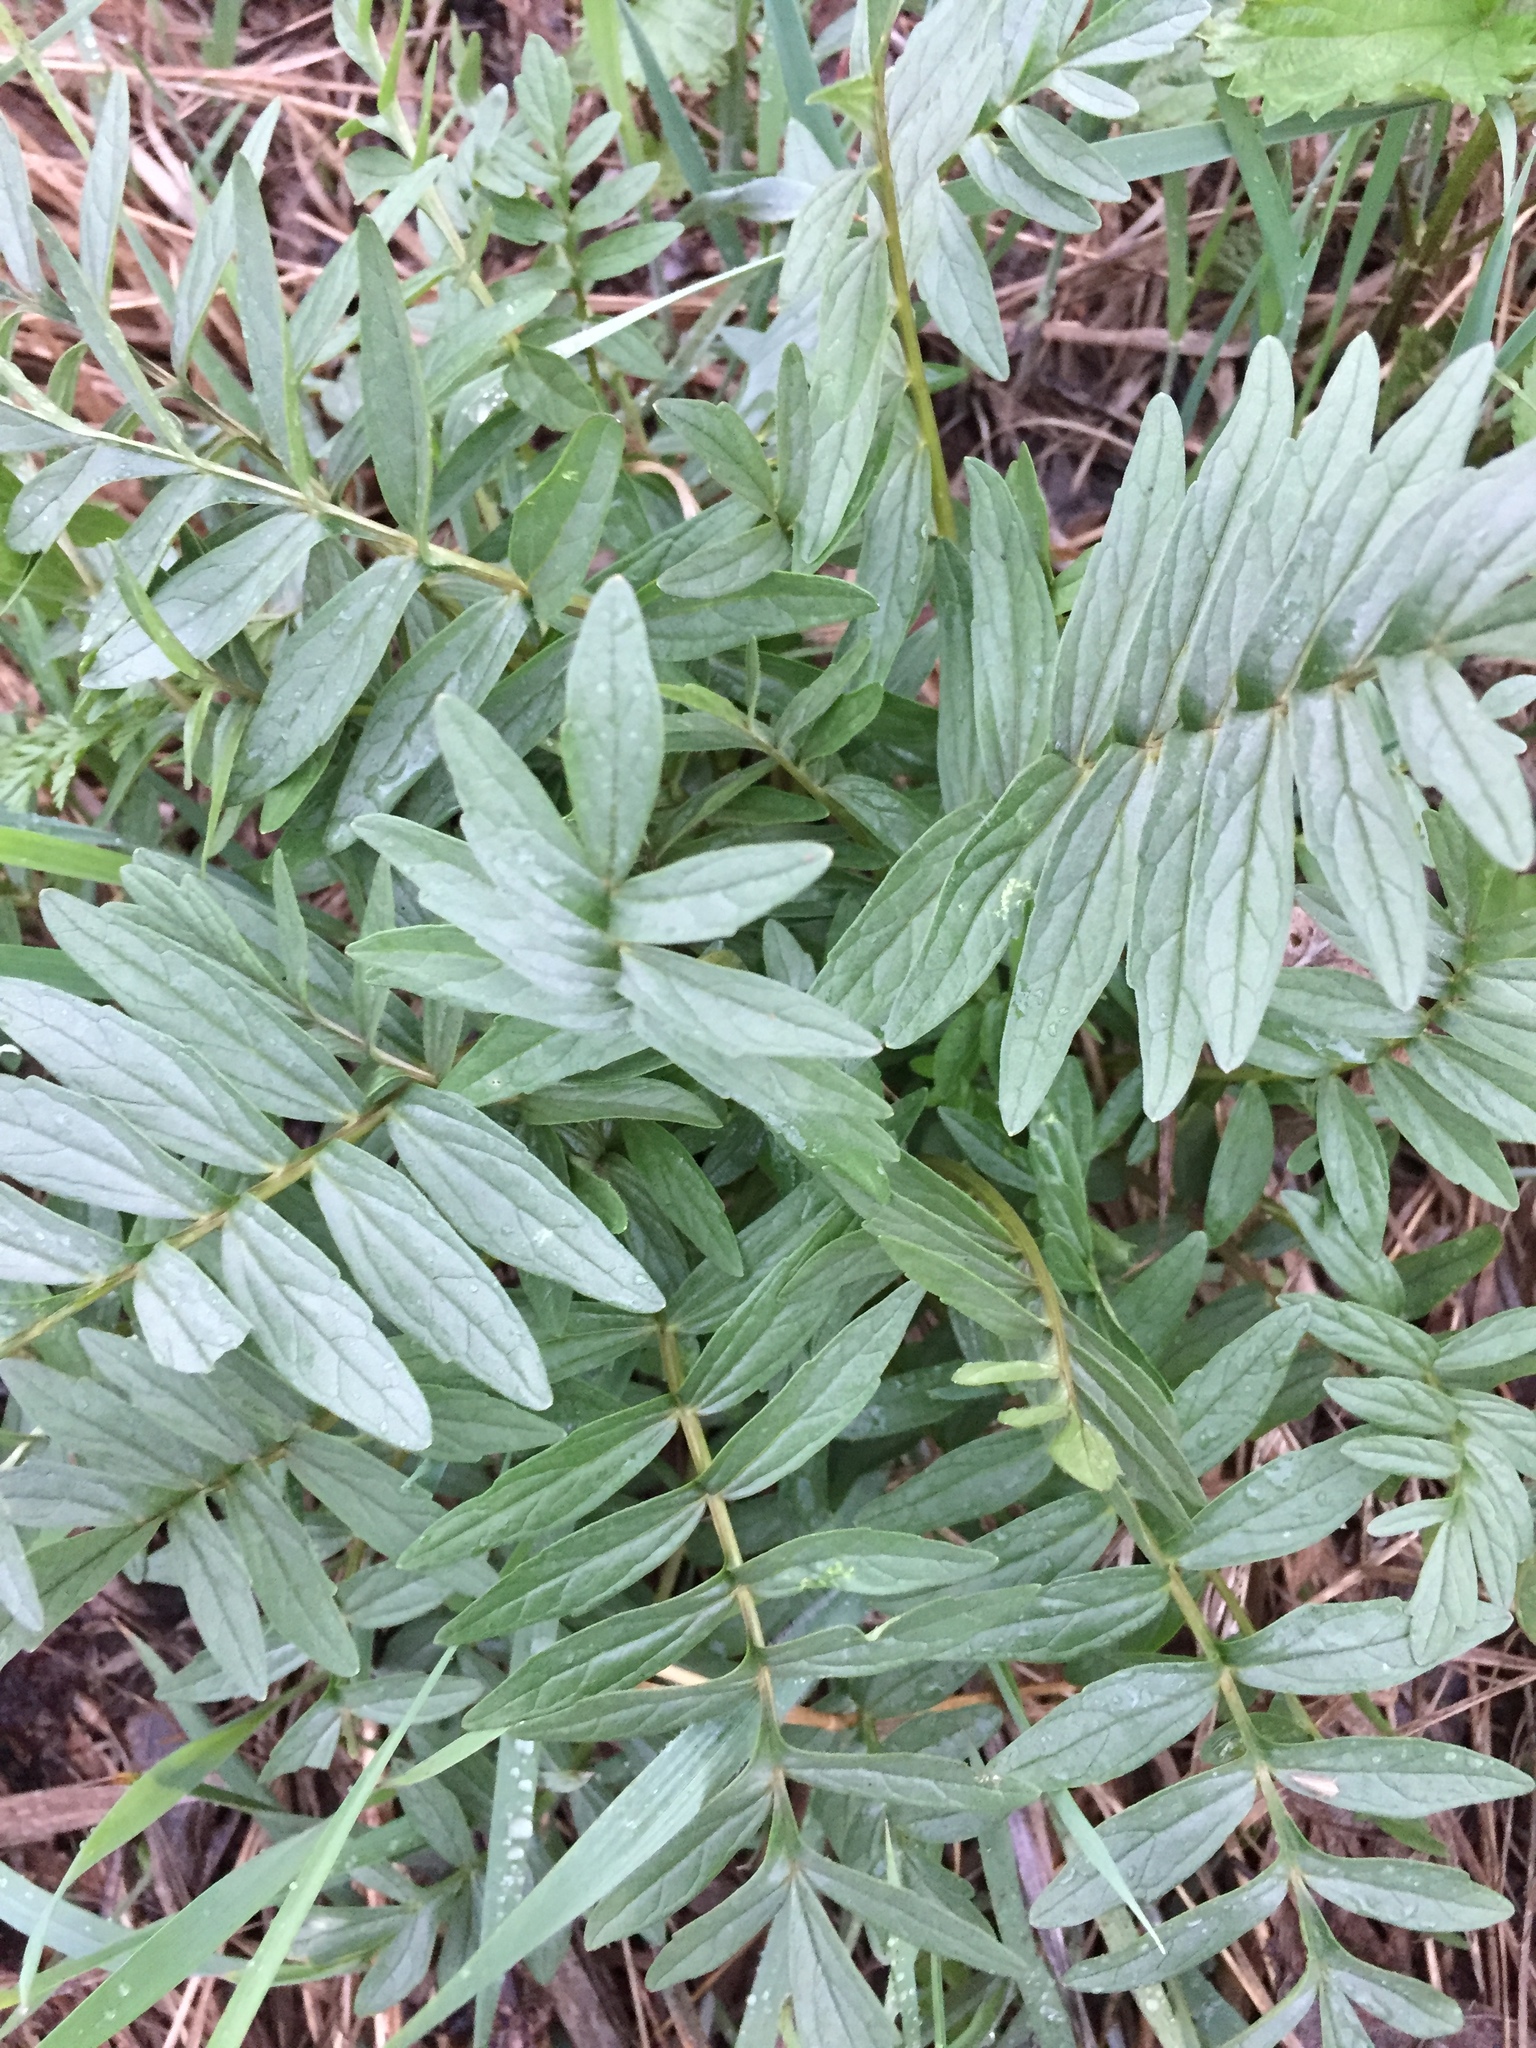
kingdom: Plantae
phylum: Tracheophyta
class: Magnoliopsida
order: Dipsacales
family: Caprifoliaceae
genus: Valeriana
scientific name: Valeriana rossica
